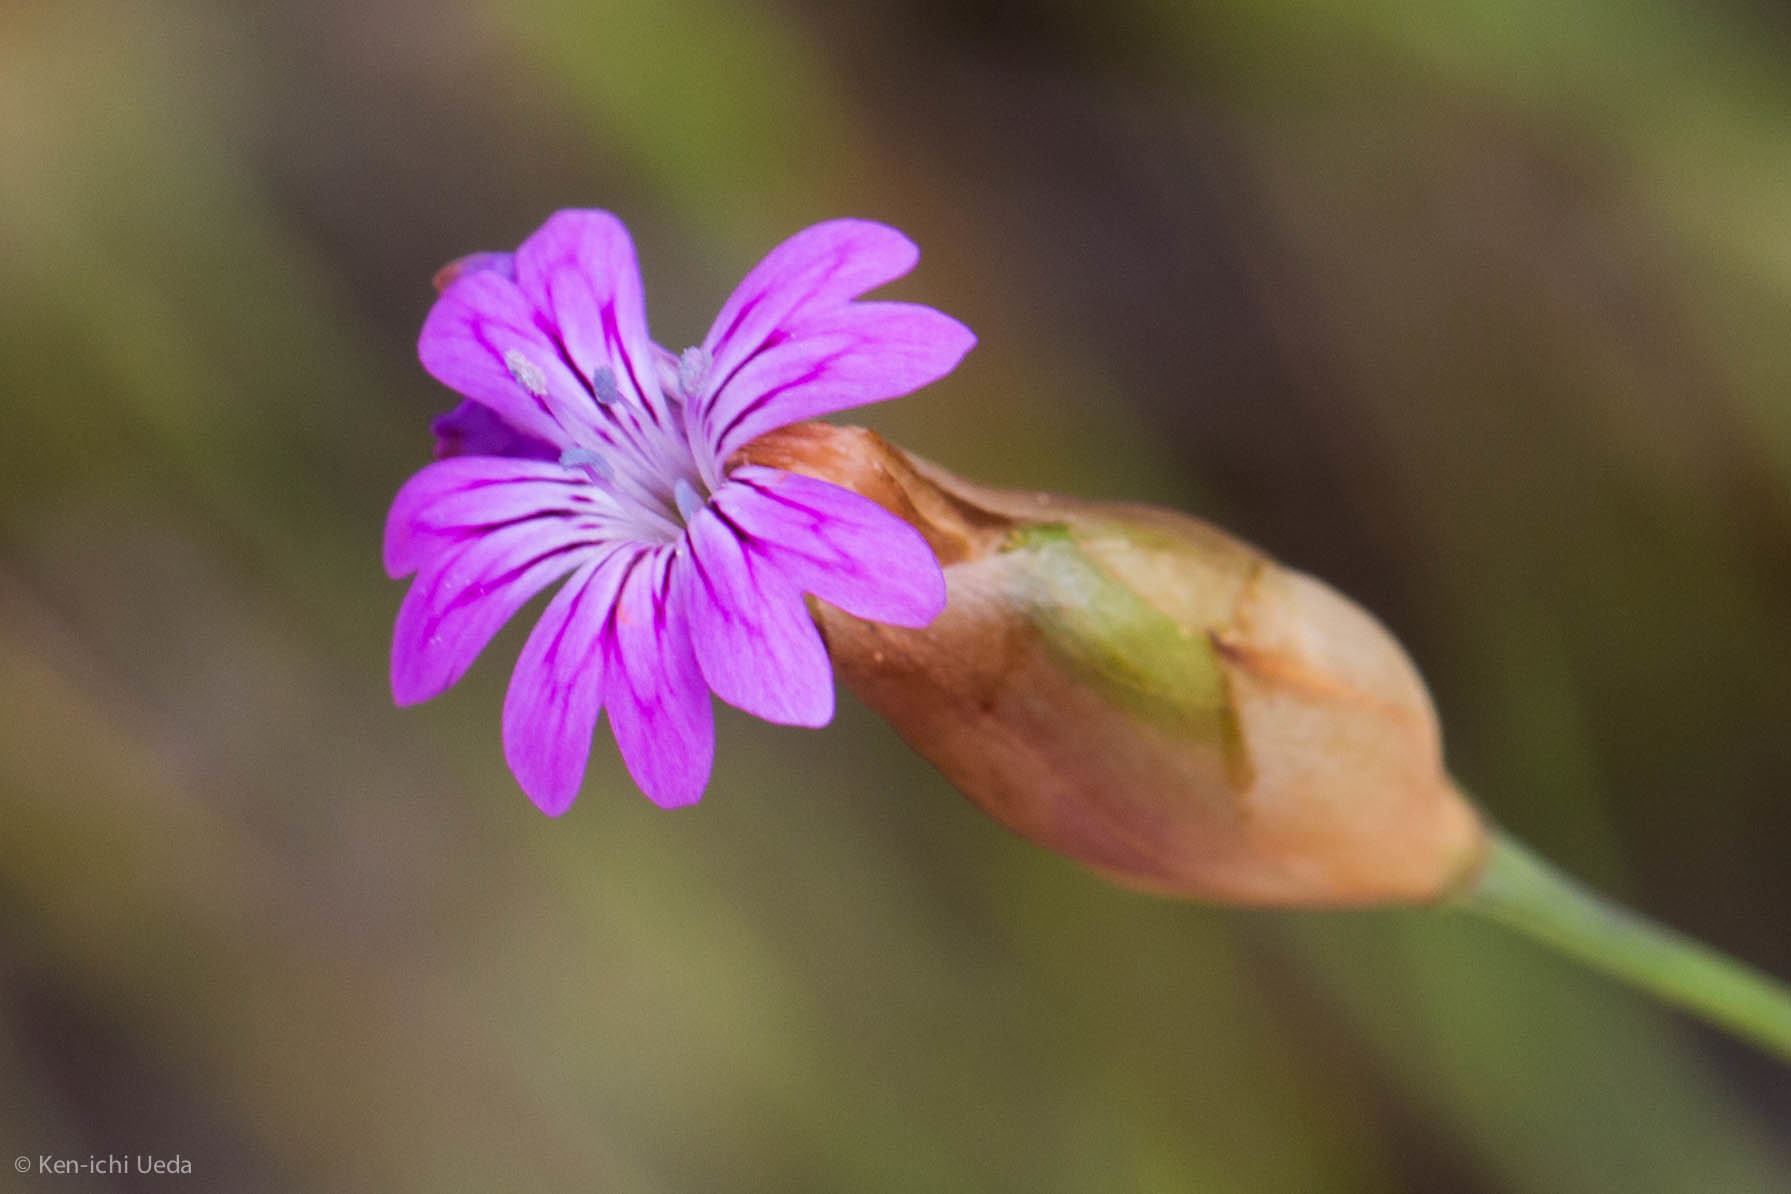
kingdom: Plantae
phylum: Tracheophyta
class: Magnoliopsida
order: Caryophyllales
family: Caryophyllaceae
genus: Petrorhagia
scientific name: Petrorhagia dubia
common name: Hairypink
